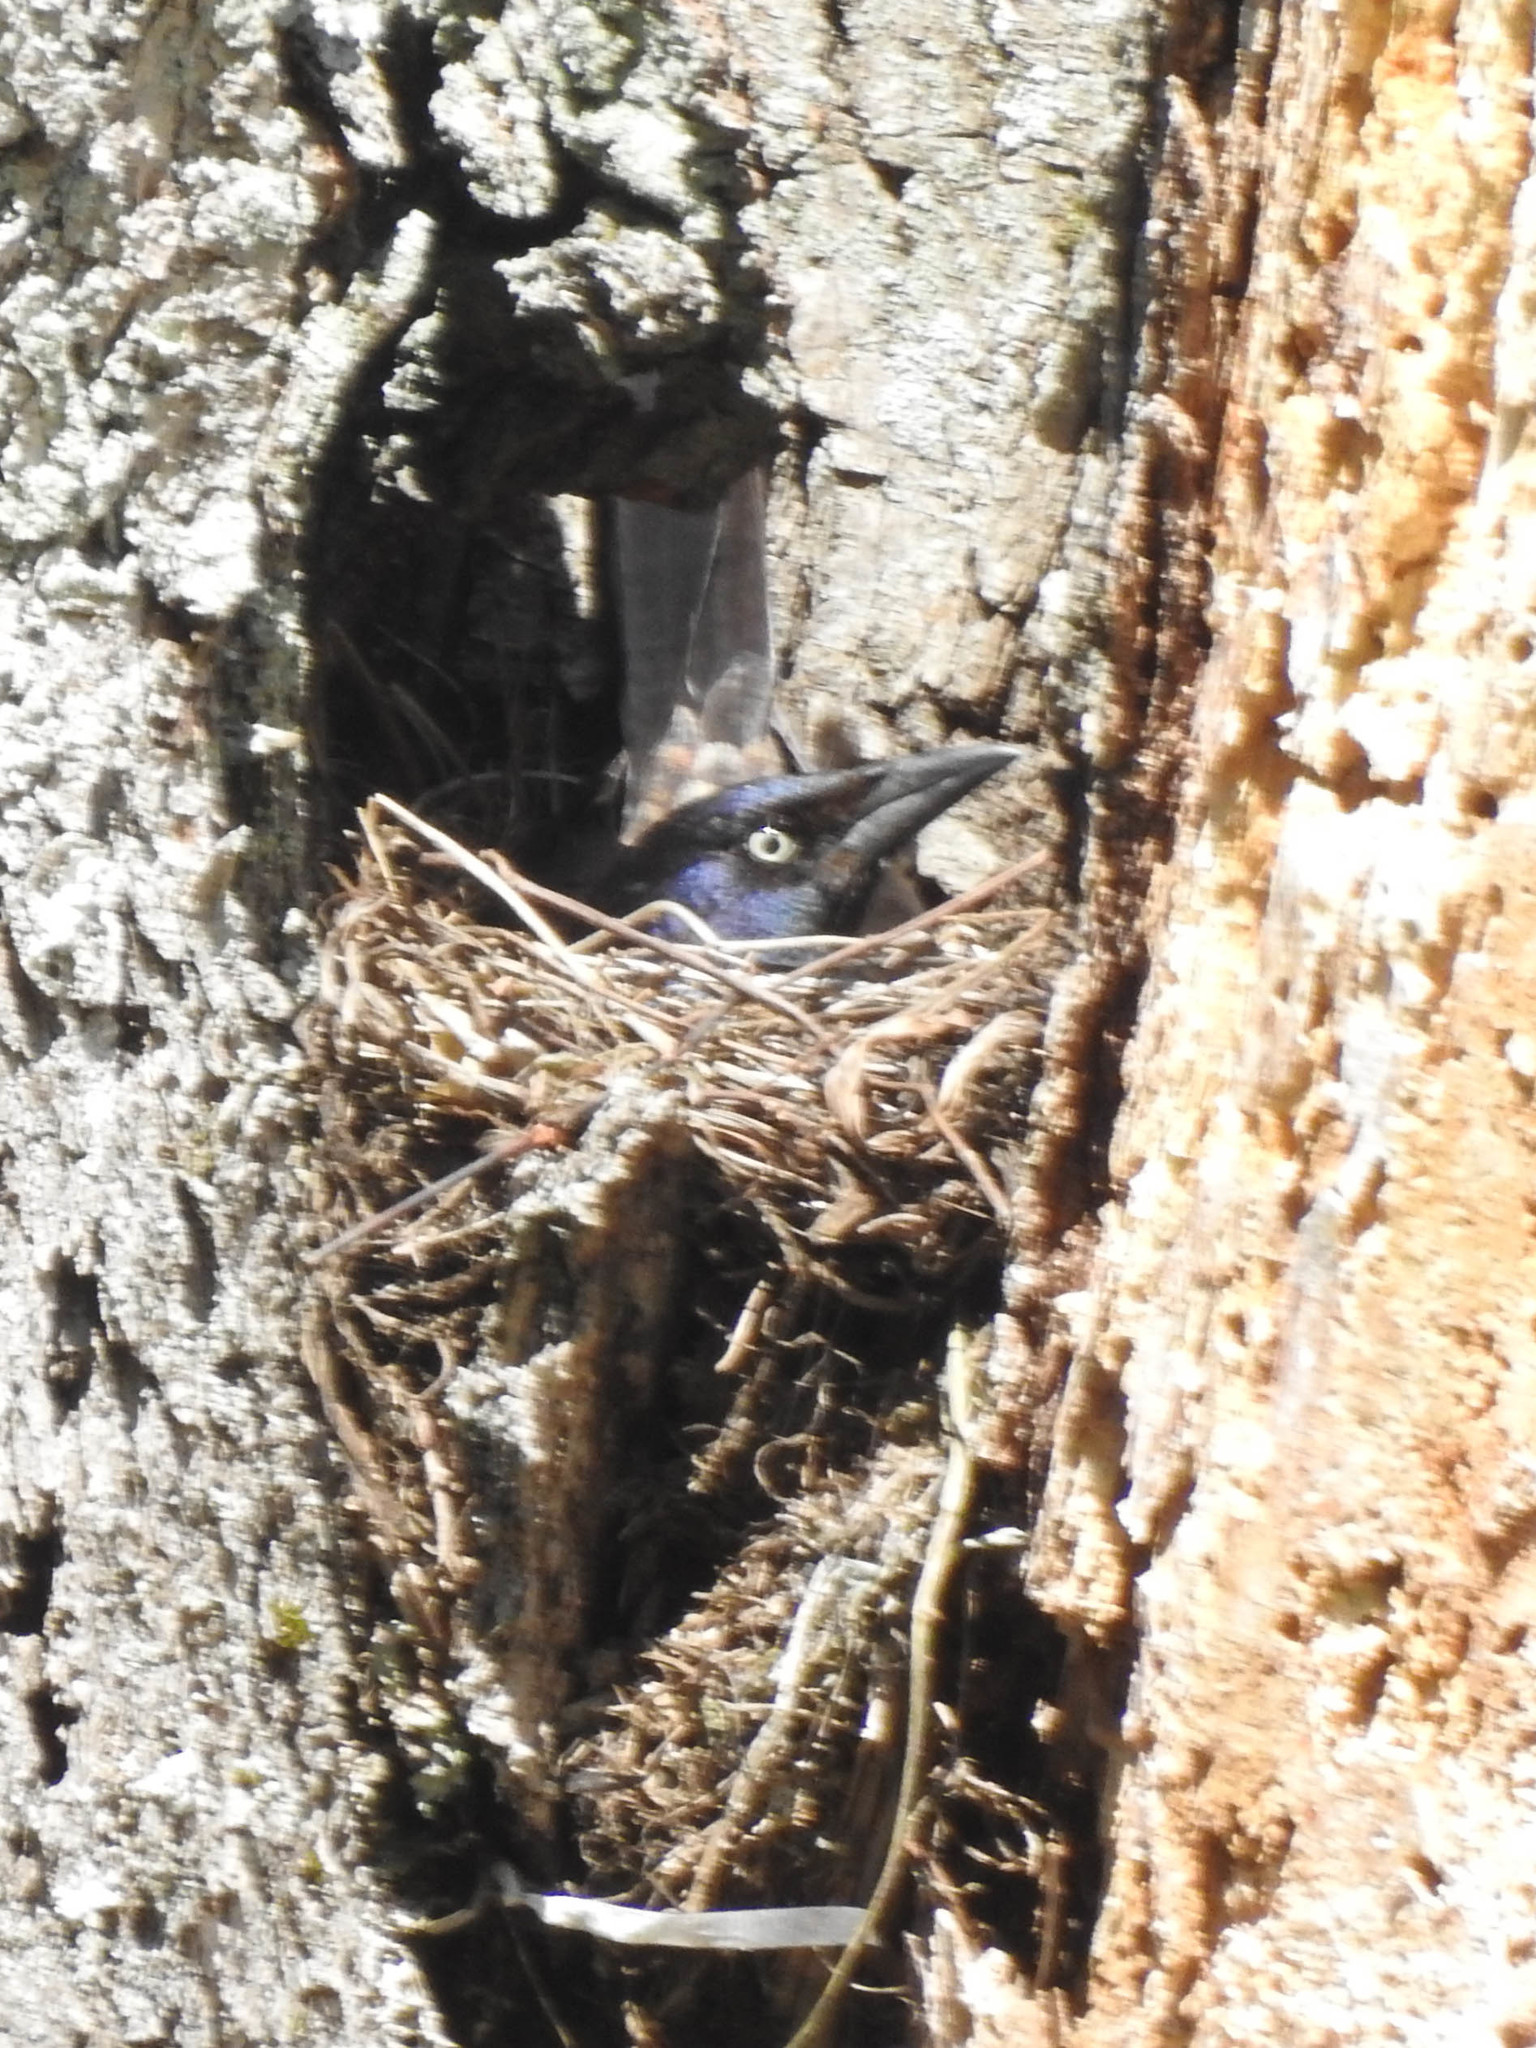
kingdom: Animalia
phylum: Chordata
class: Aves
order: Passeriformes
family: Icteridae
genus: Quiscalus
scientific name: Quiscalus quiscula
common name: Common grackle
